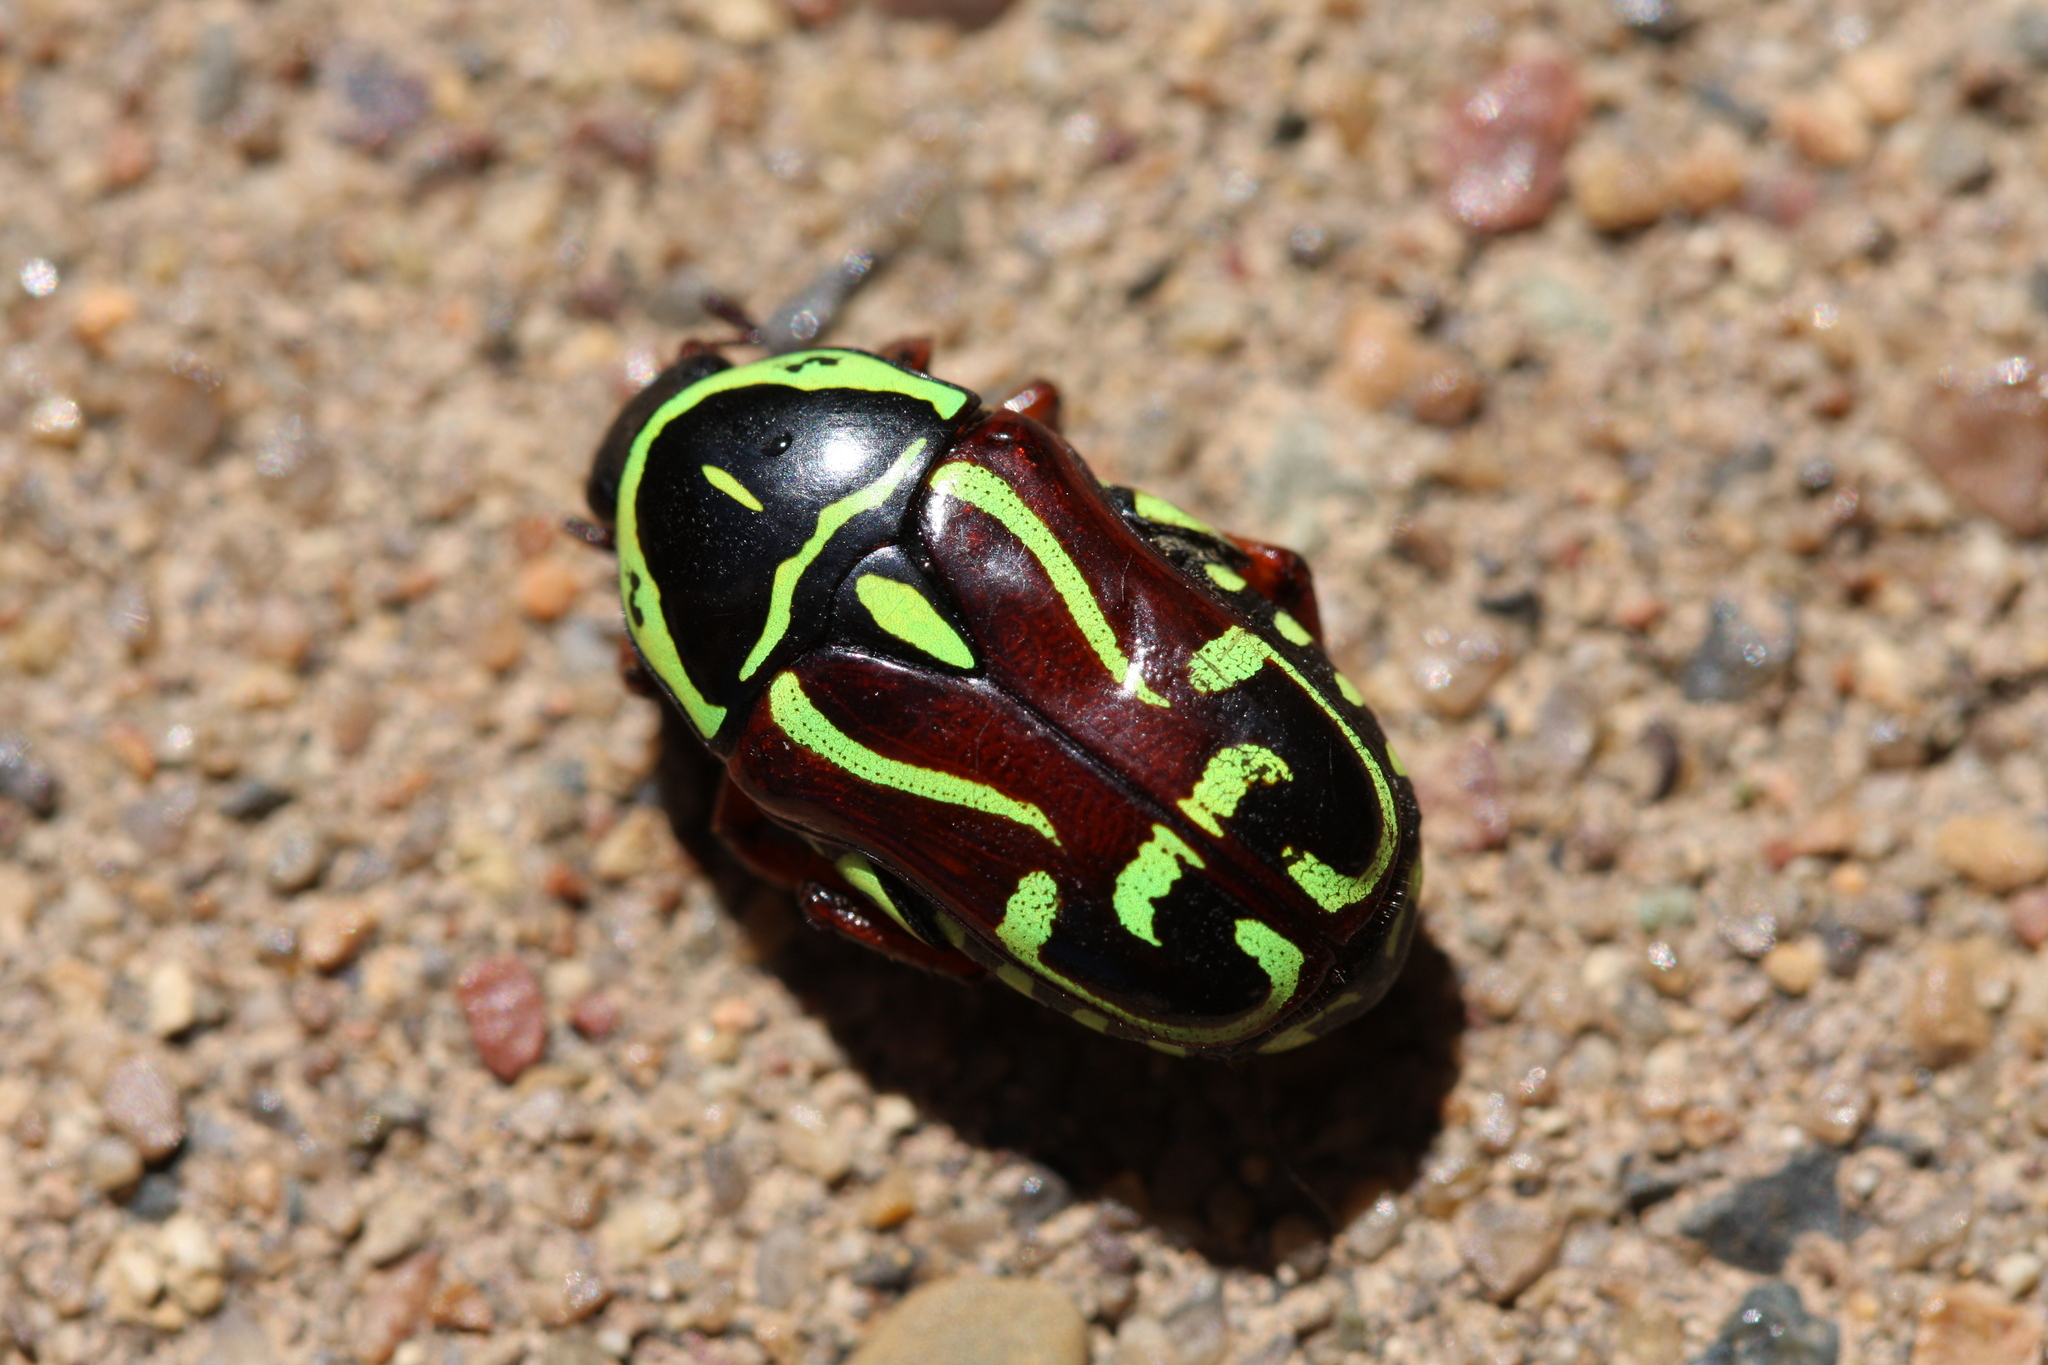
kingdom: Animalia
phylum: Arthropoda
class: Insecta
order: Coleoptera
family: Scarabaeidae
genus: Eupoecila
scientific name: Eupoecila australasiae
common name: Fiddler beetle
